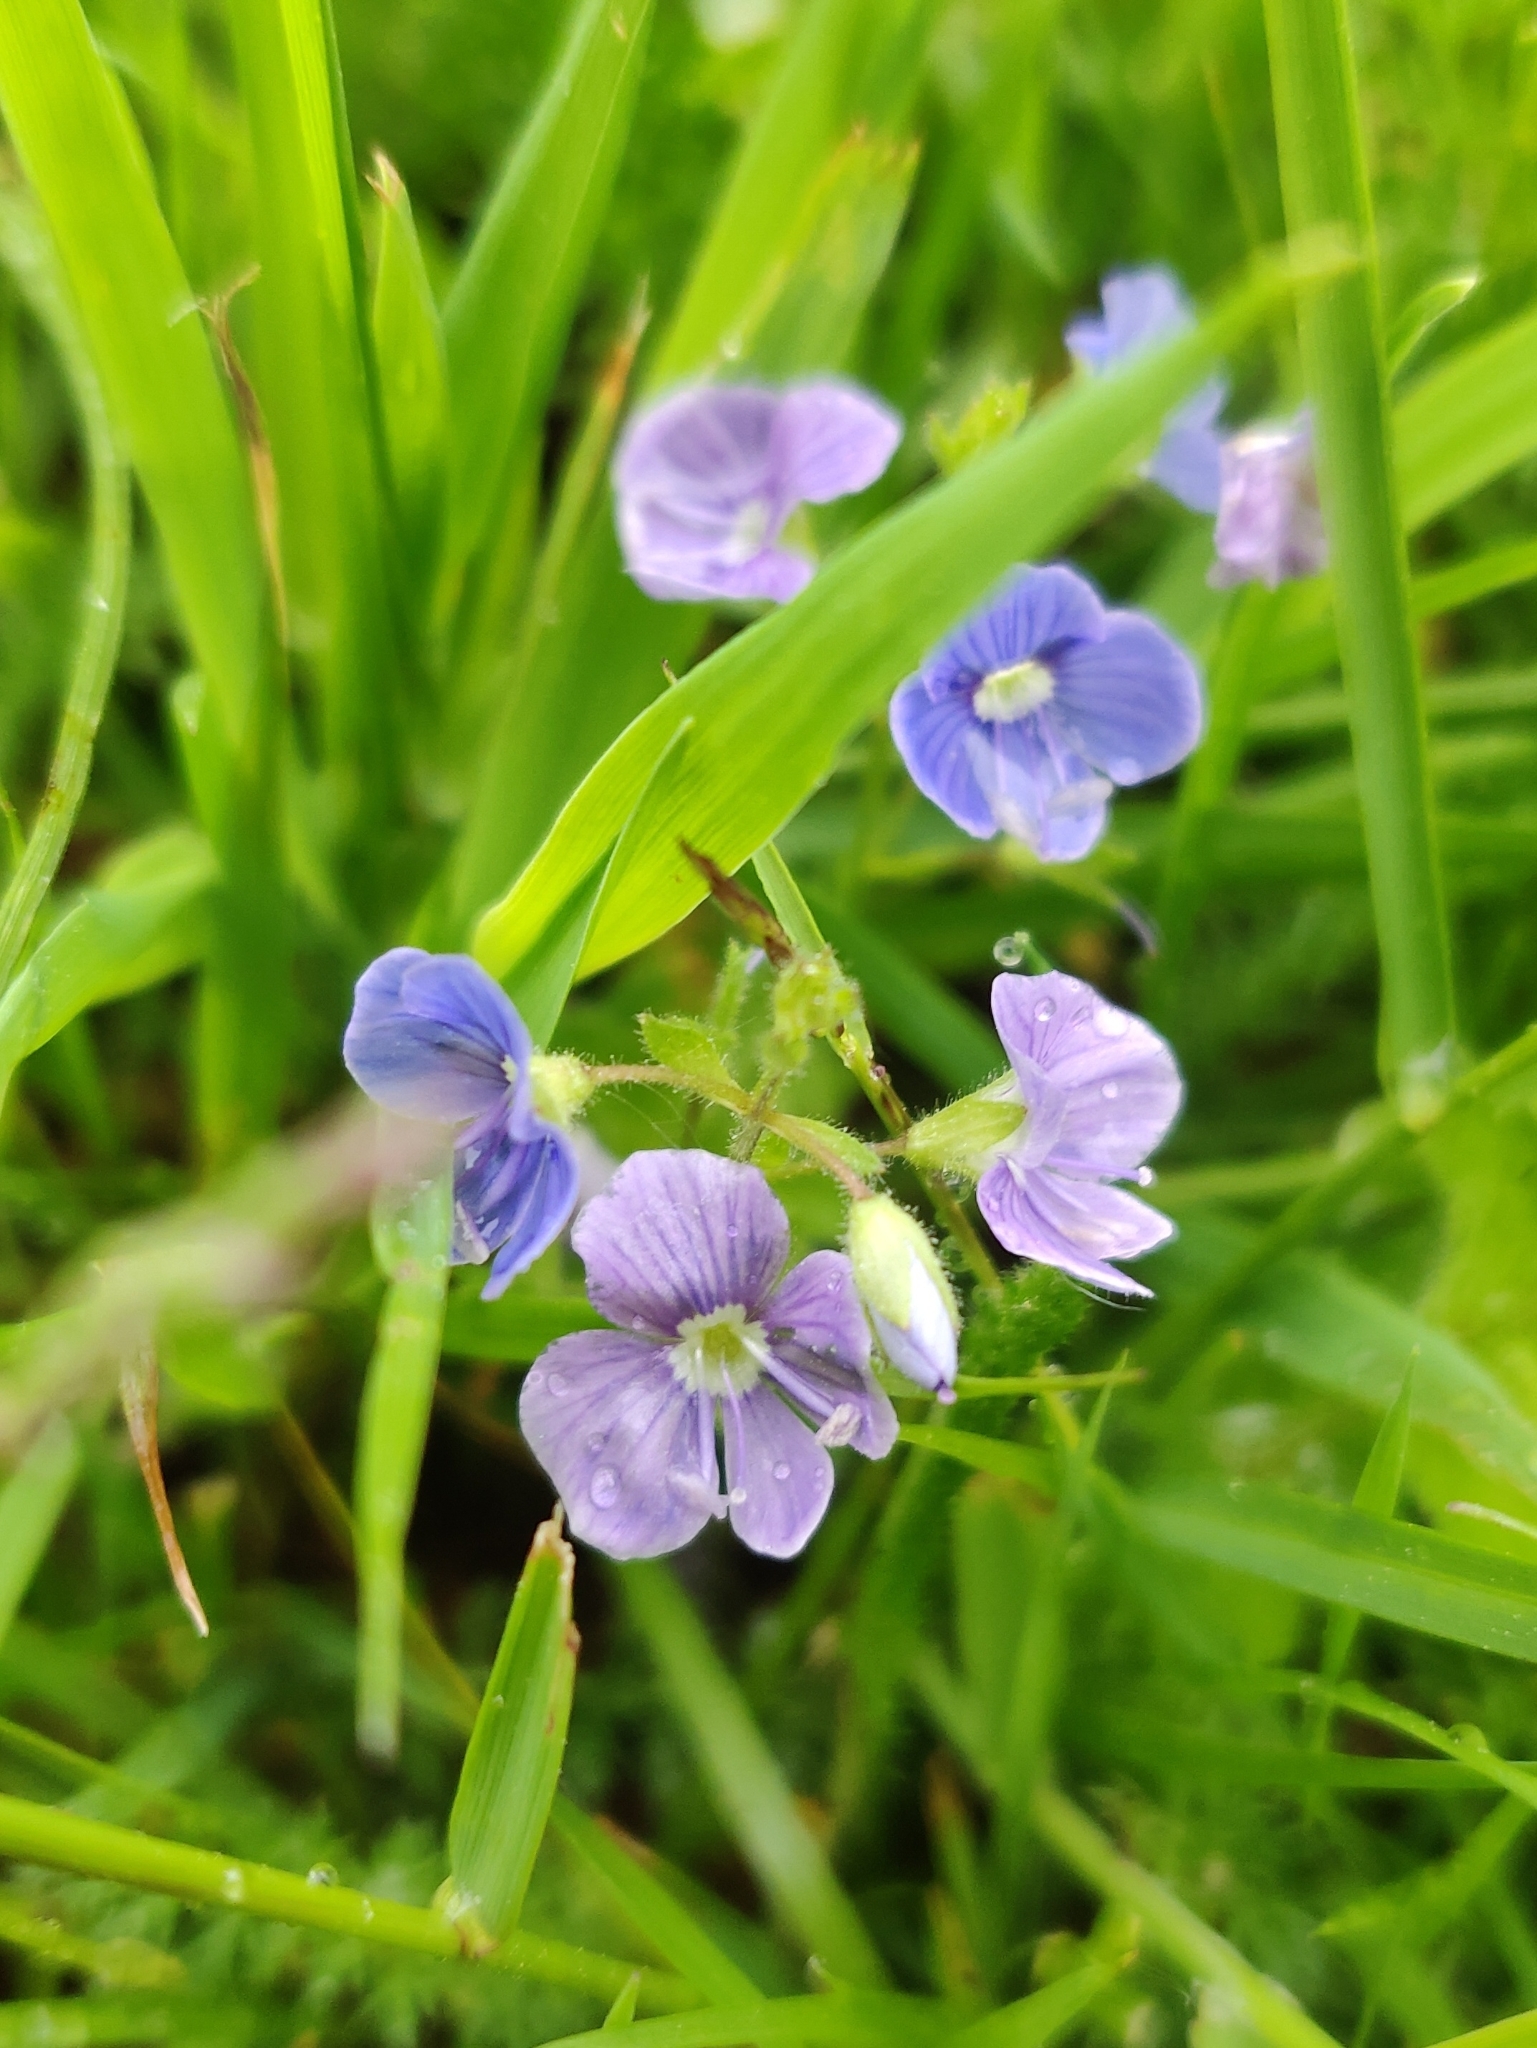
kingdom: Plantae
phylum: Tracheophyta
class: Magnoliopsida
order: Lamiales
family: Plantaginaceae
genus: Veronica
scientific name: Veronica chamaedrys
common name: Germander speedwell
